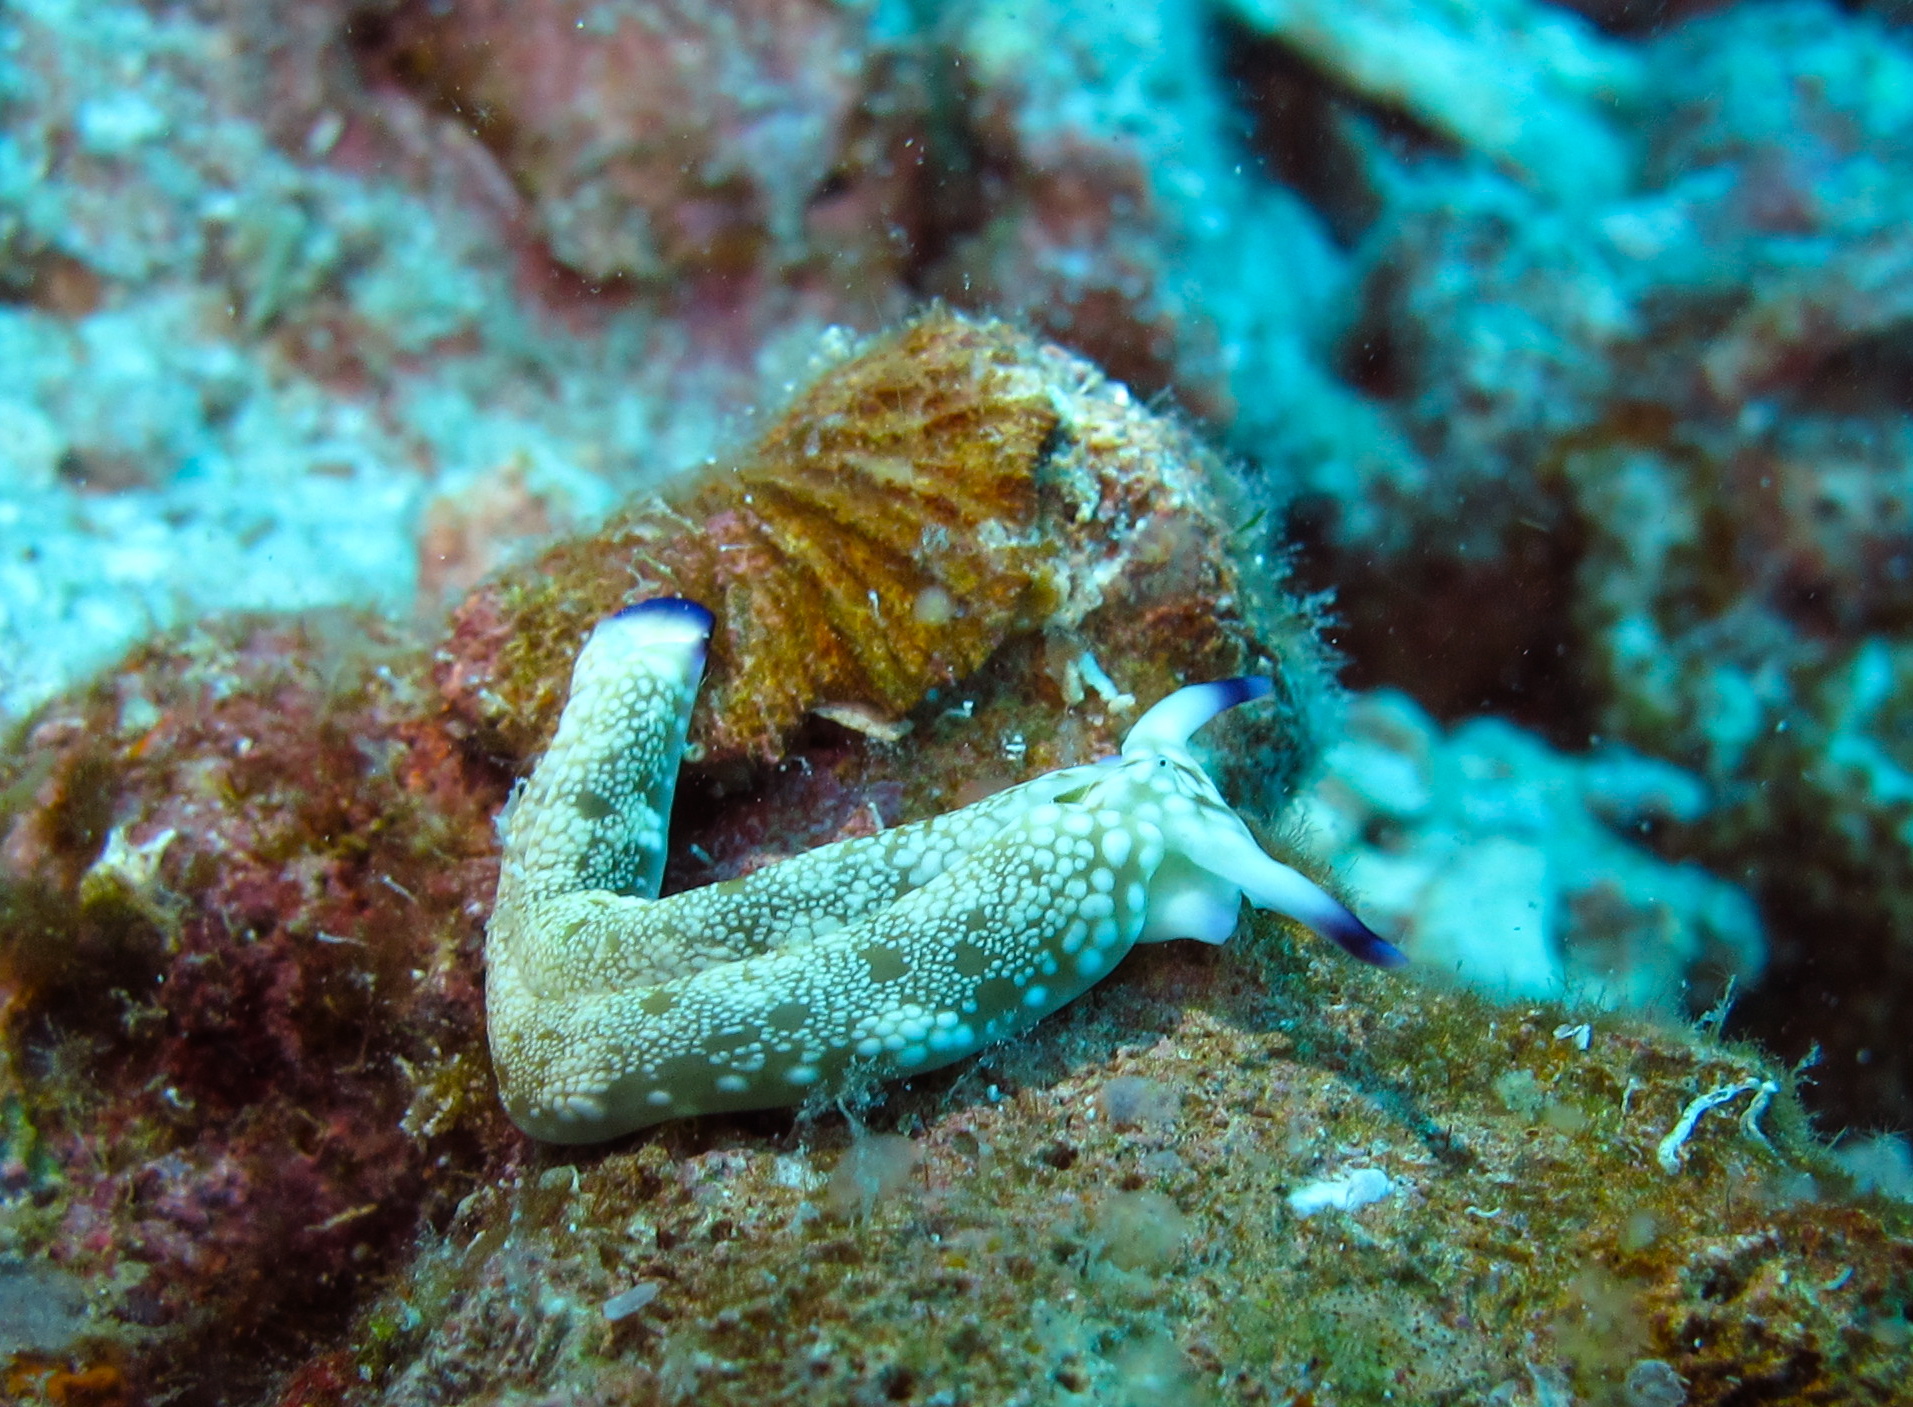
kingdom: Animalia
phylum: Mollusca
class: Gastropoda
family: Plakobranchidae
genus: Plakobranchus
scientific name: Plakobranchus papua
